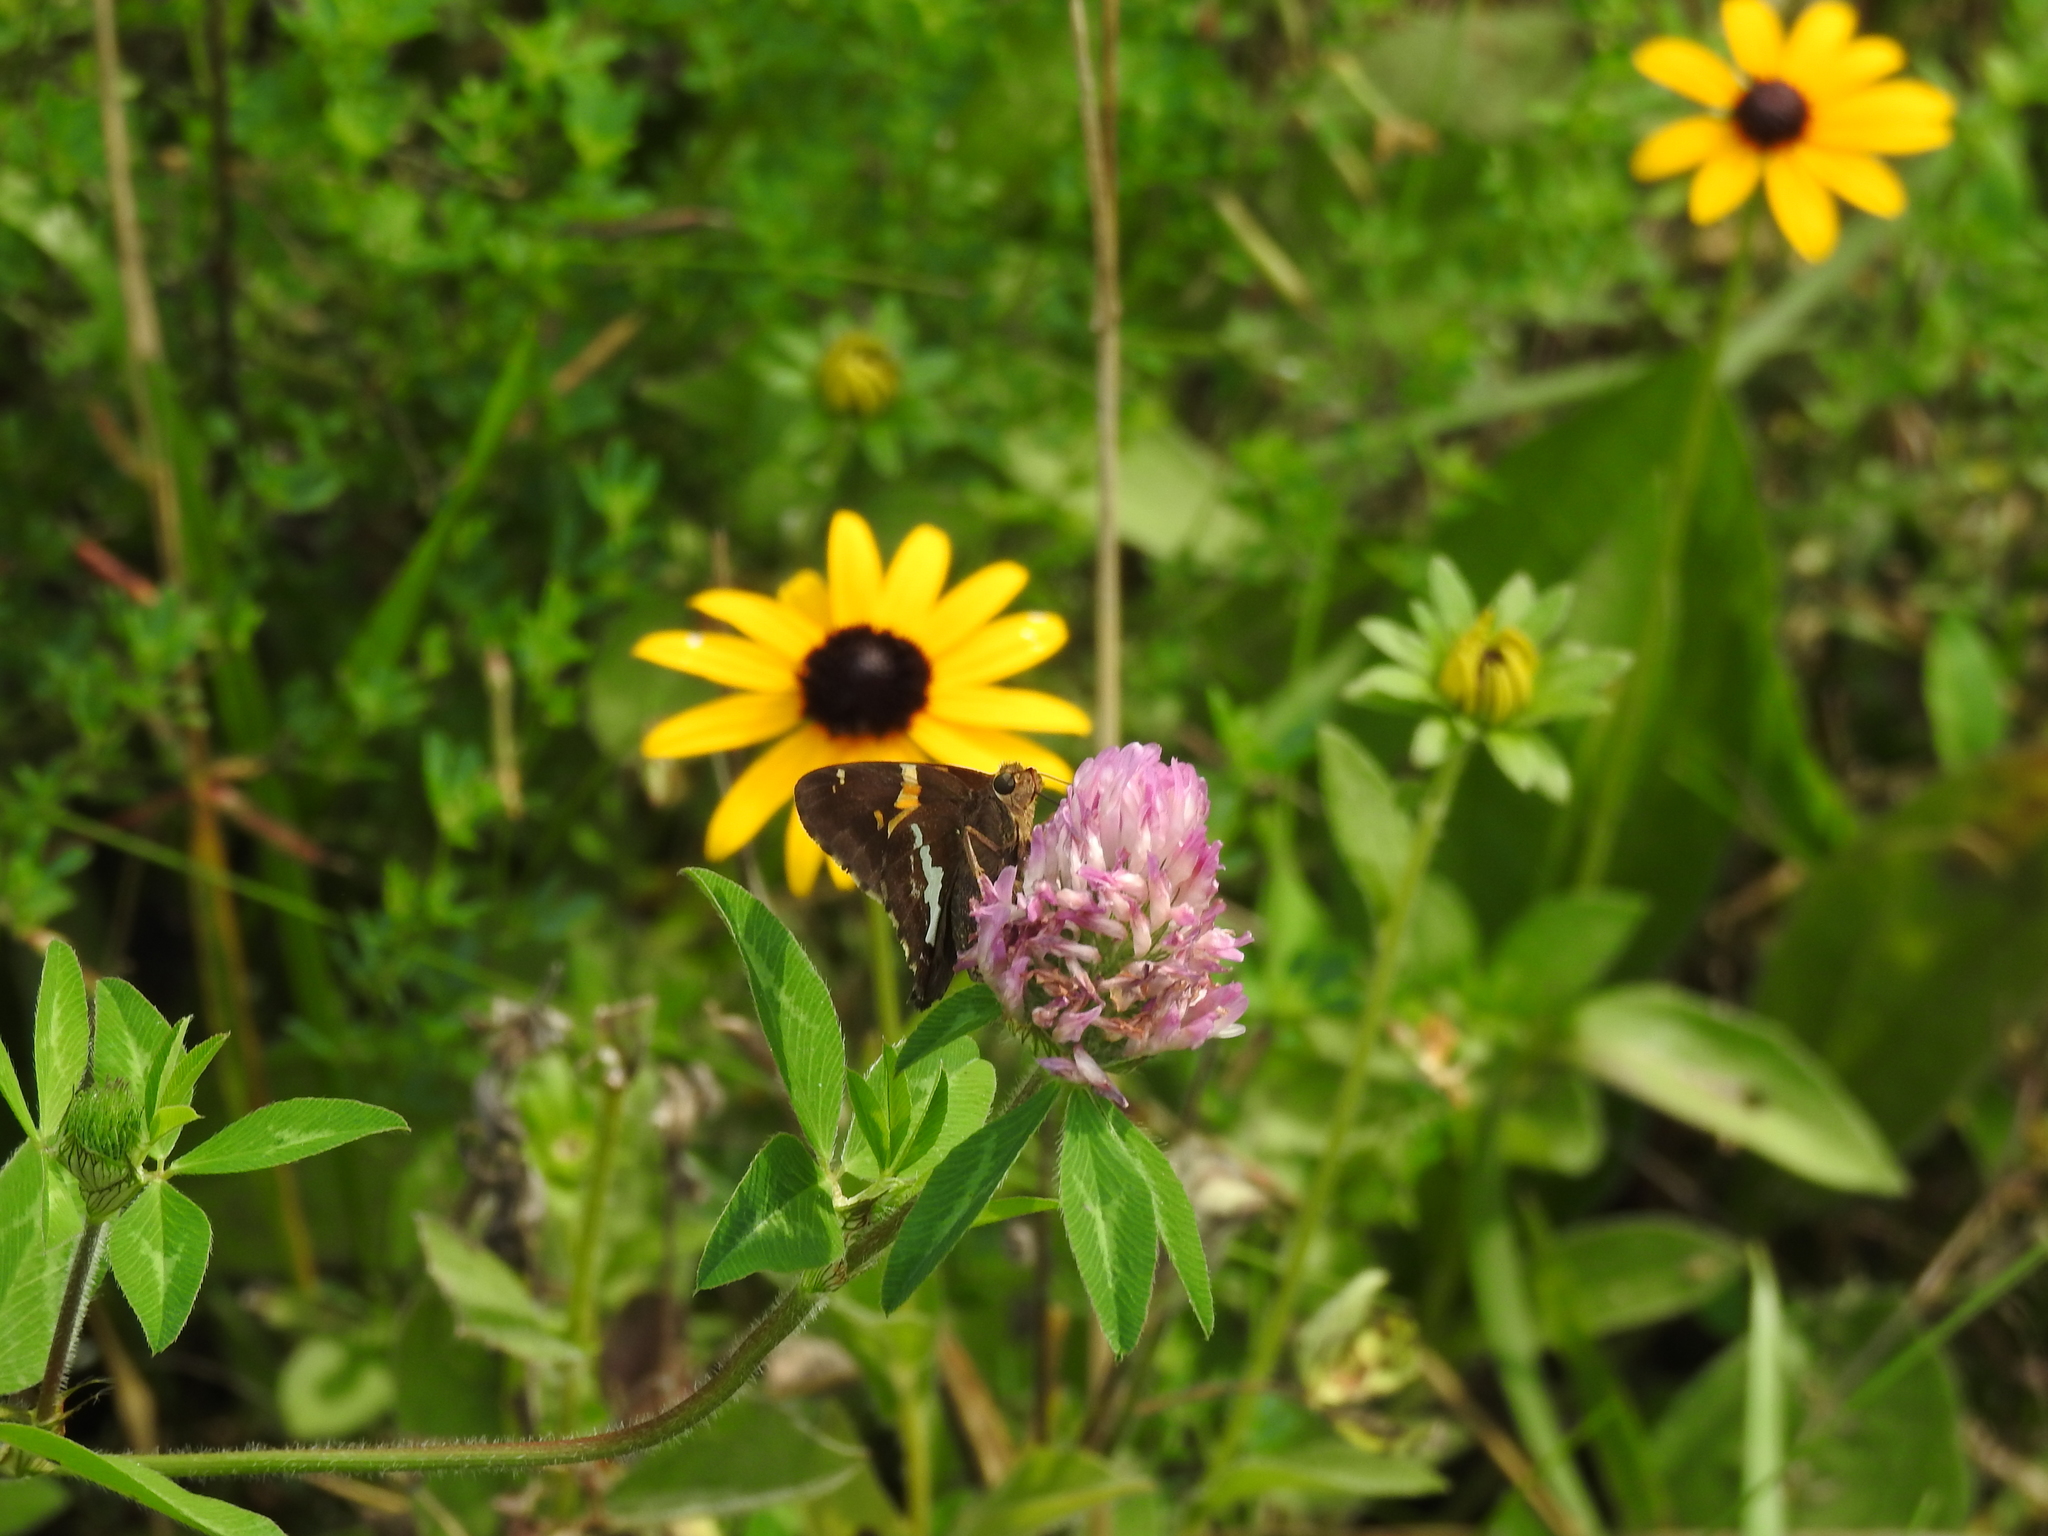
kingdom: Animalia
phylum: Arthropoda
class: Insecta
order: Lepidoptera
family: Hesperiidae
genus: Epargyreus
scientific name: Epargyreus clarus
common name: Silver-spotted skipper
